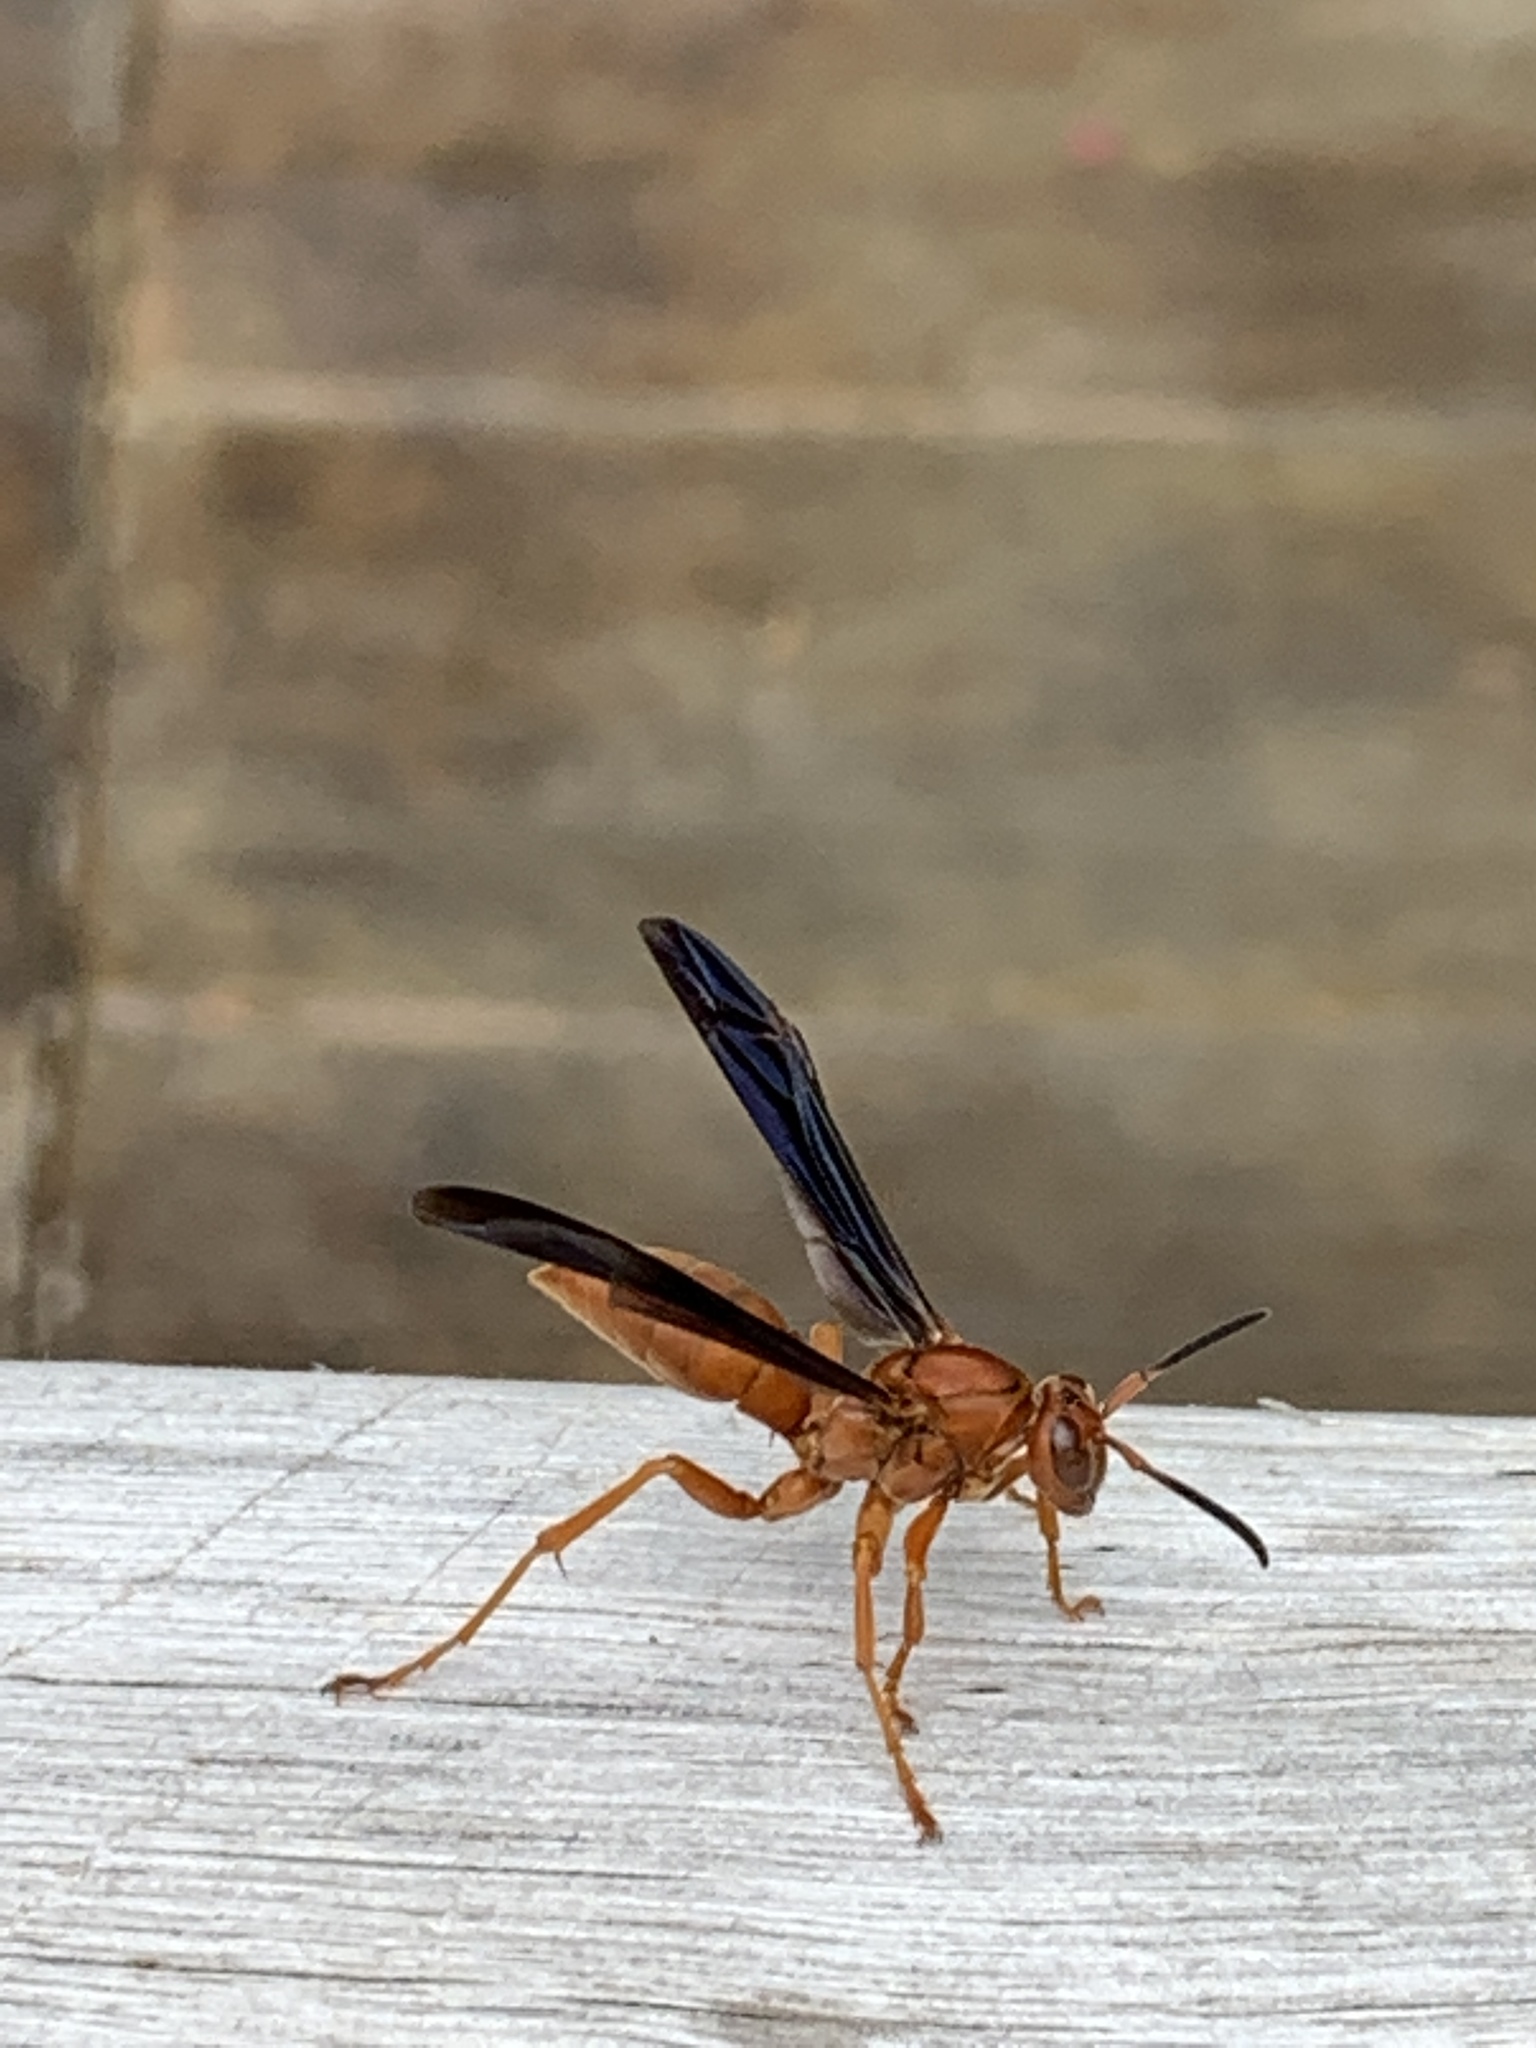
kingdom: Animalia
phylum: Arthropoda
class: Insecta
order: Hymenoptera
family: Eumenidae
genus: Polistes
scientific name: Polistes carolina
